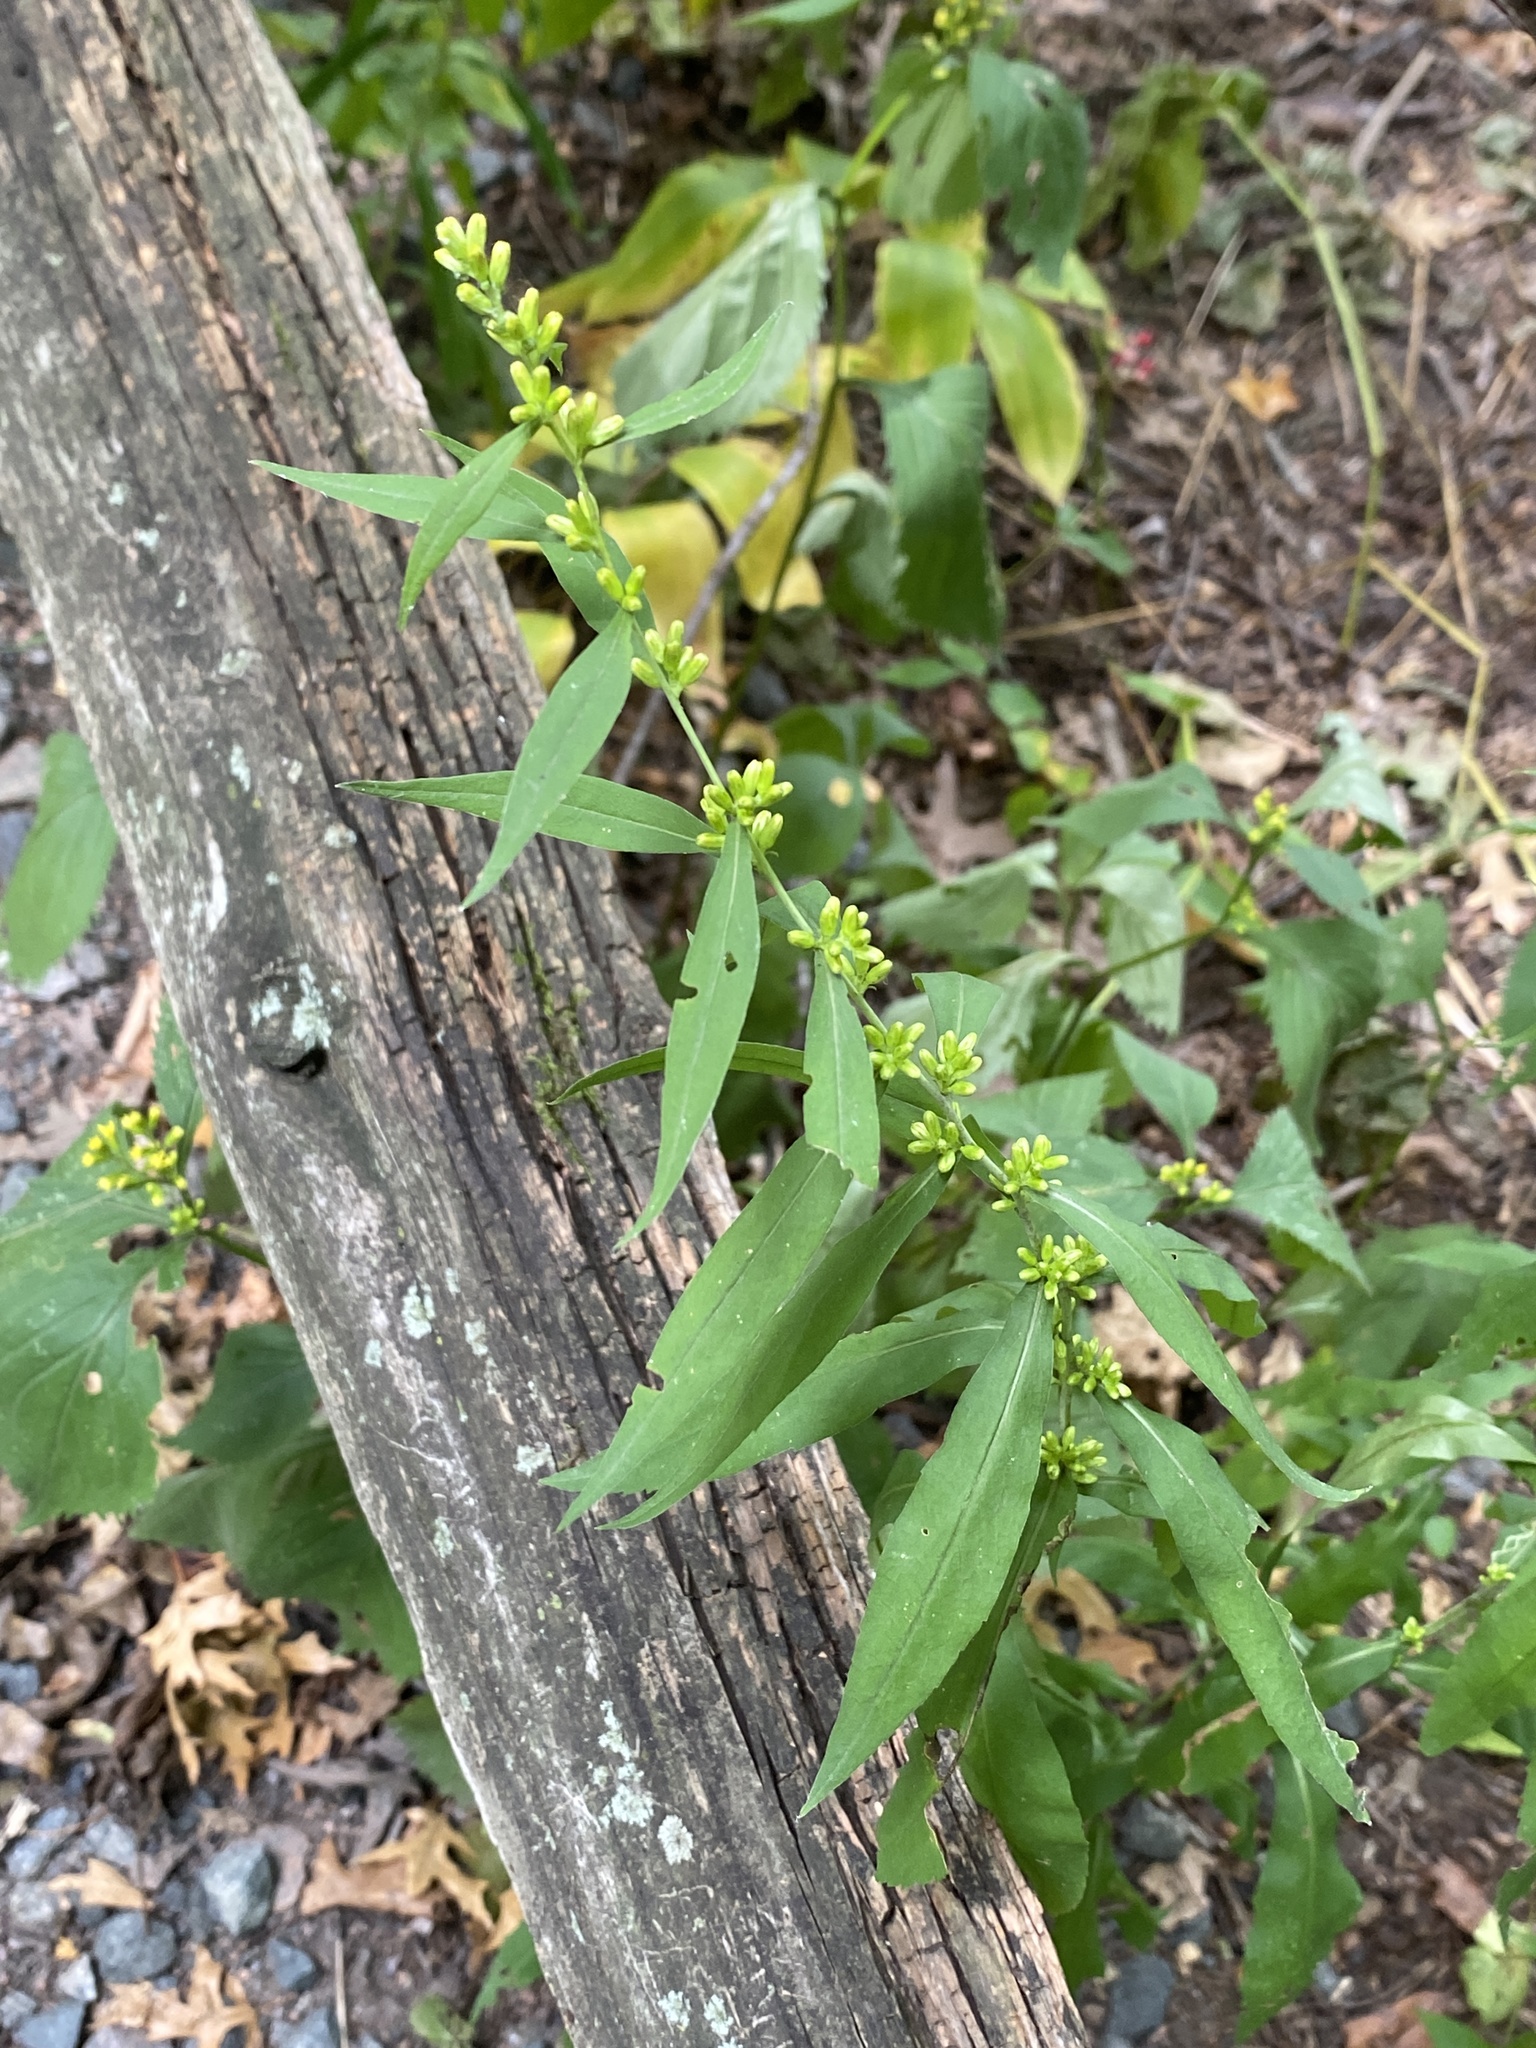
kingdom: Plantae
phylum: Tracheophyta
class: Magnoliopsida
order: Asterales
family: Asteraceae
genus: Solidago
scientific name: Solidago caesia
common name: Woodland goldenrod
